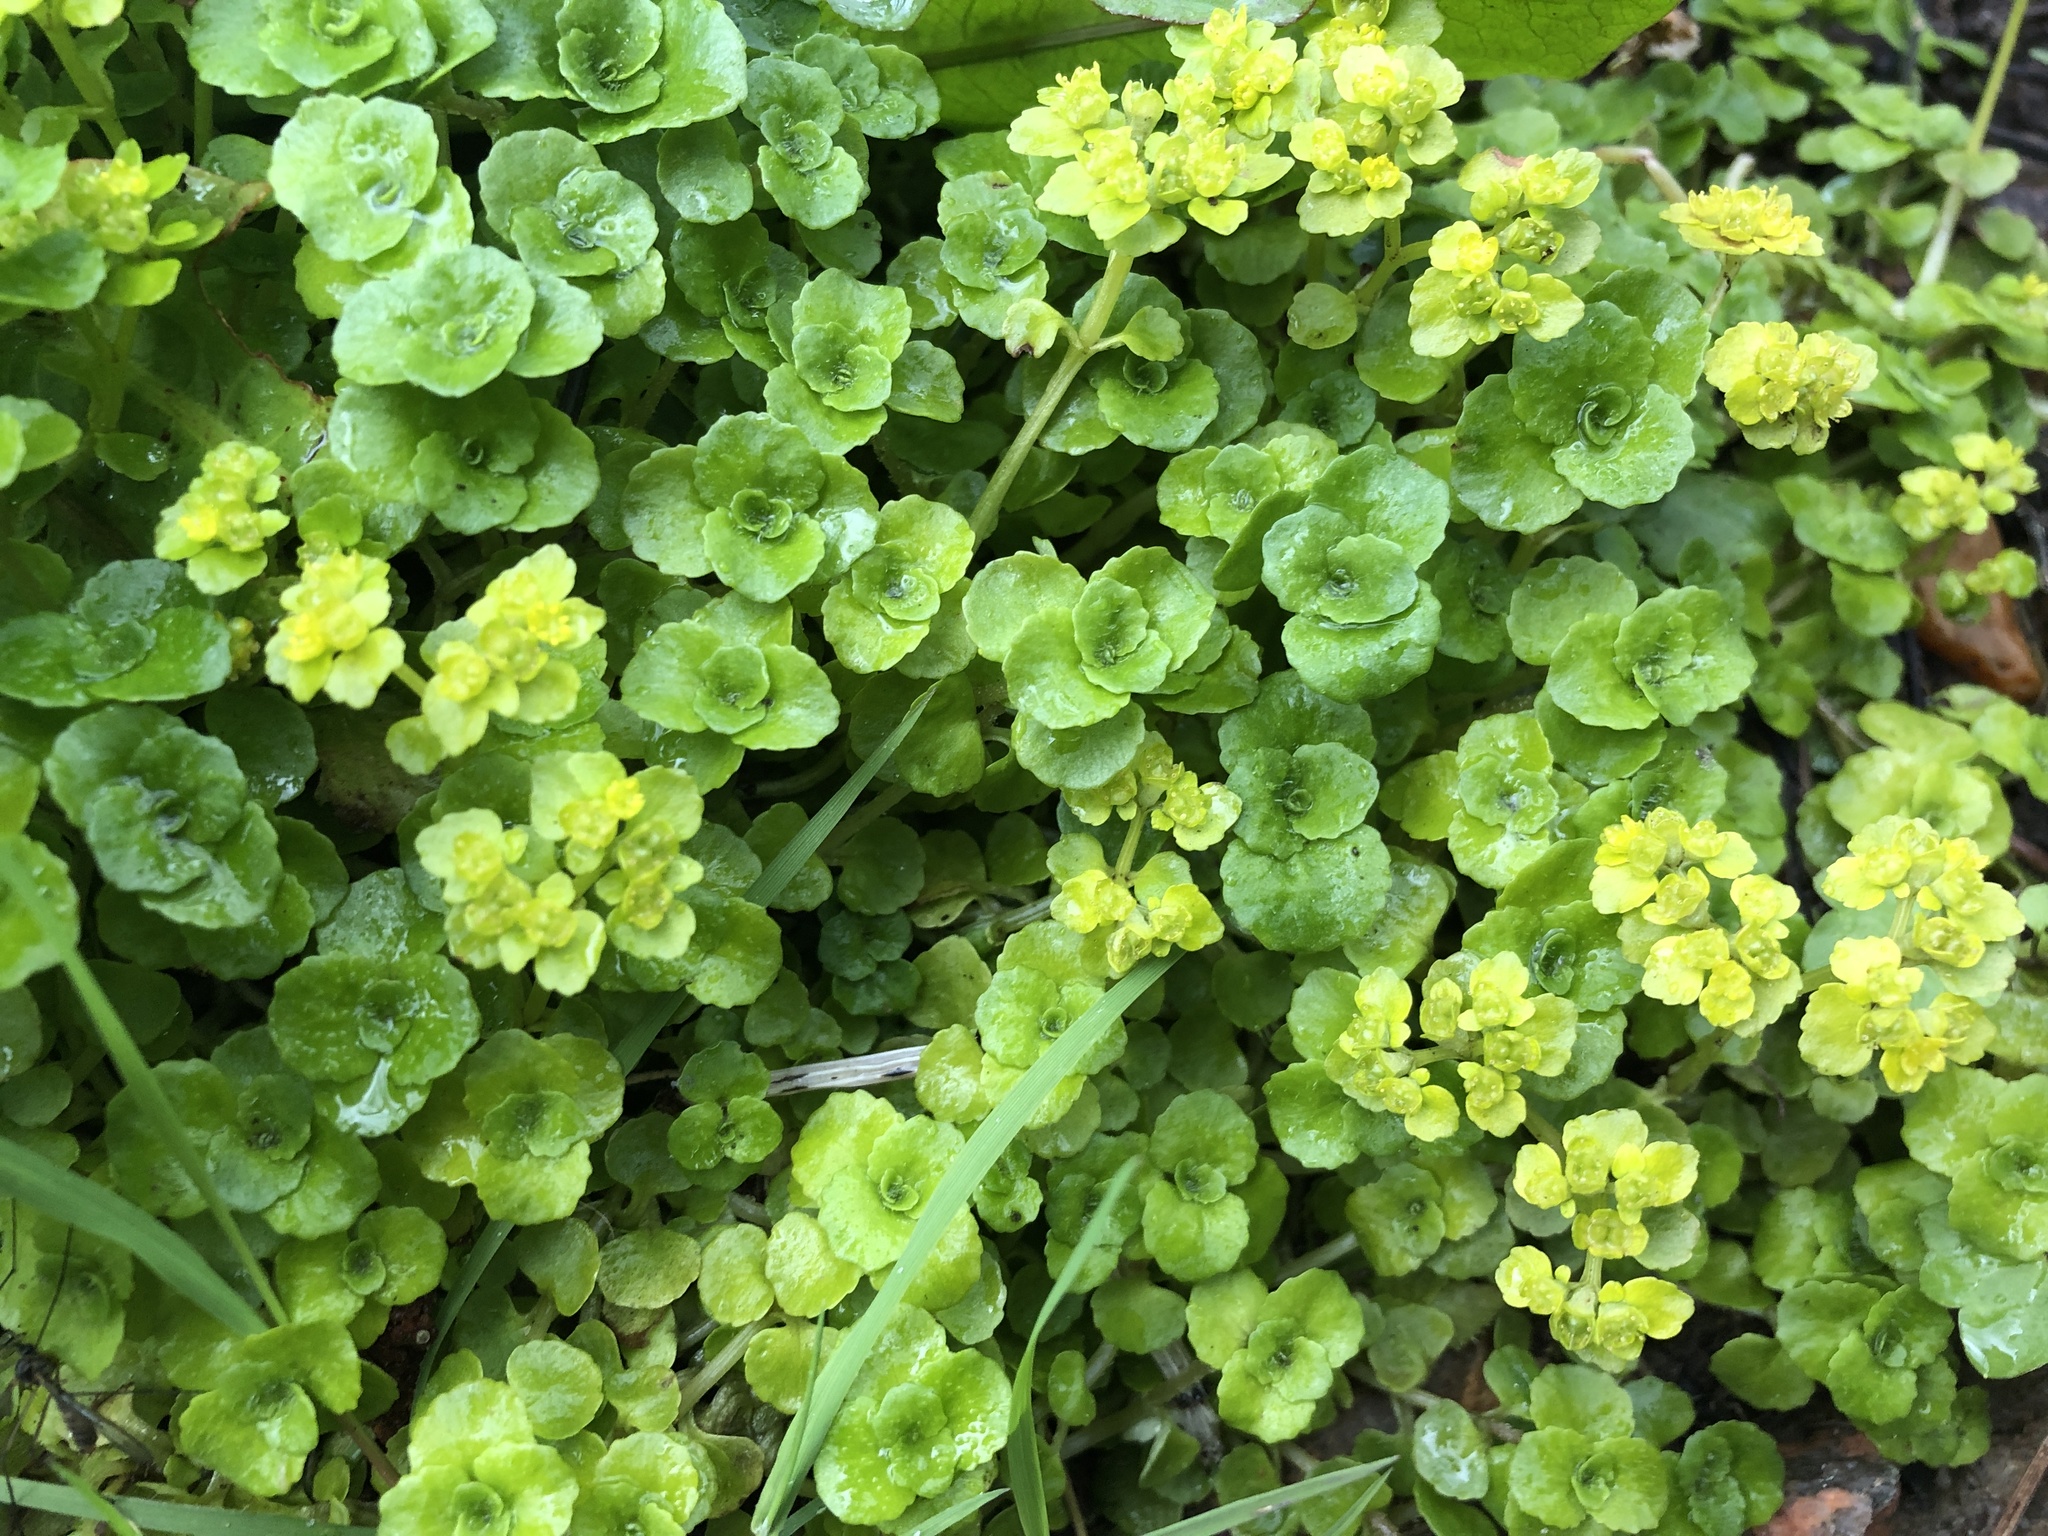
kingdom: Plantae
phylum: Tracheophyta
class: Magnoliopsida
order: Saxifragales
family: Saxifragaceae
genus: Chrysosplenium
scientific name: Chrysosplenium oppositifolium
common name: Opposite-leaved golden-saxifrage
